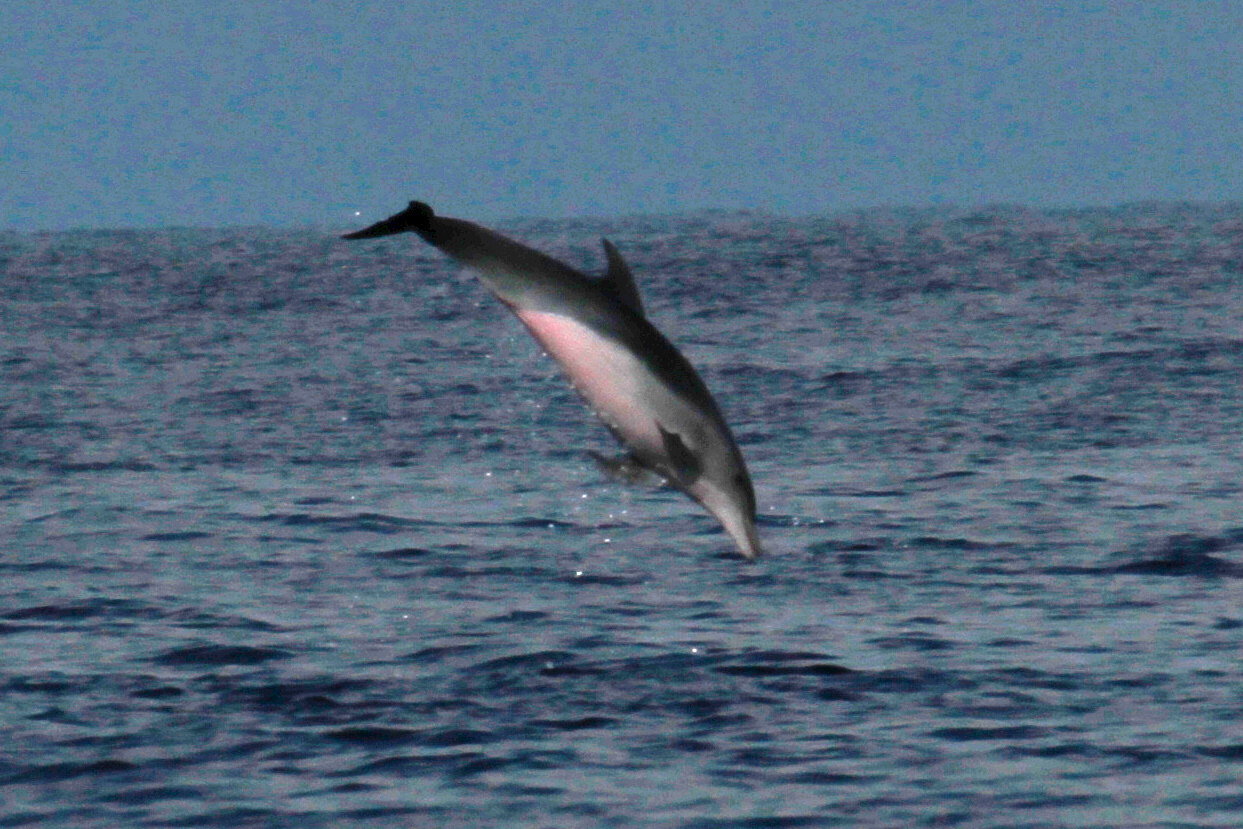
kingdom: Animalia
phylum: Chordata
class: Mammalia
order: Cetacea
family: Delphinidae
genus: Tursiops
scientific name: Tursiops truncatus
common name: Bottlenose dolphin
